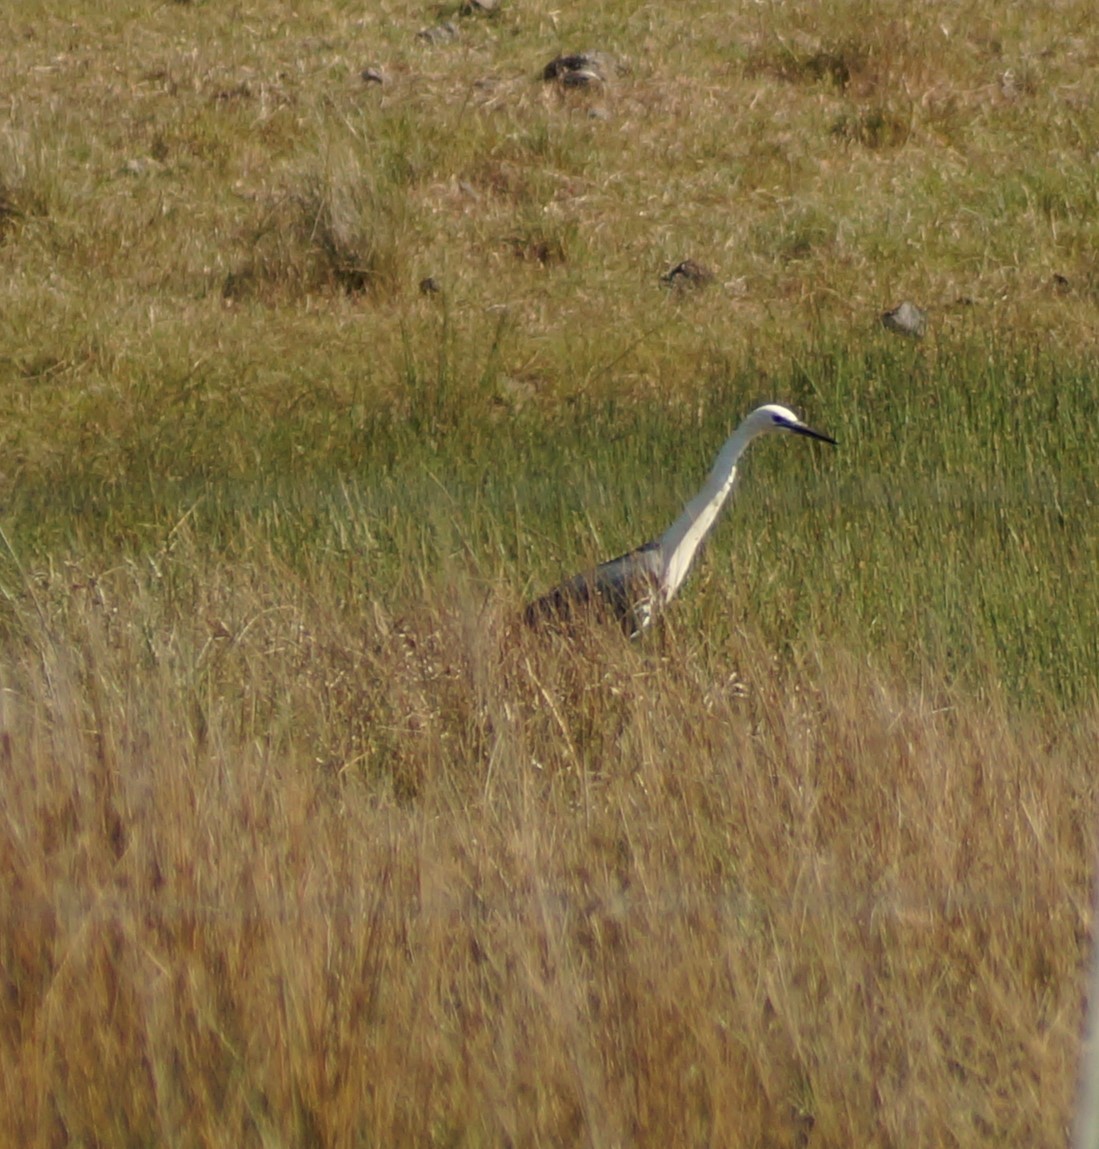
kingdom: Animalia
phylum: Chordata
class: Aves
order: Pelecaniformes
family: Ardeidae
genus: Ardea
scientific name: Ardea pacifica
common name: White-necked heron
